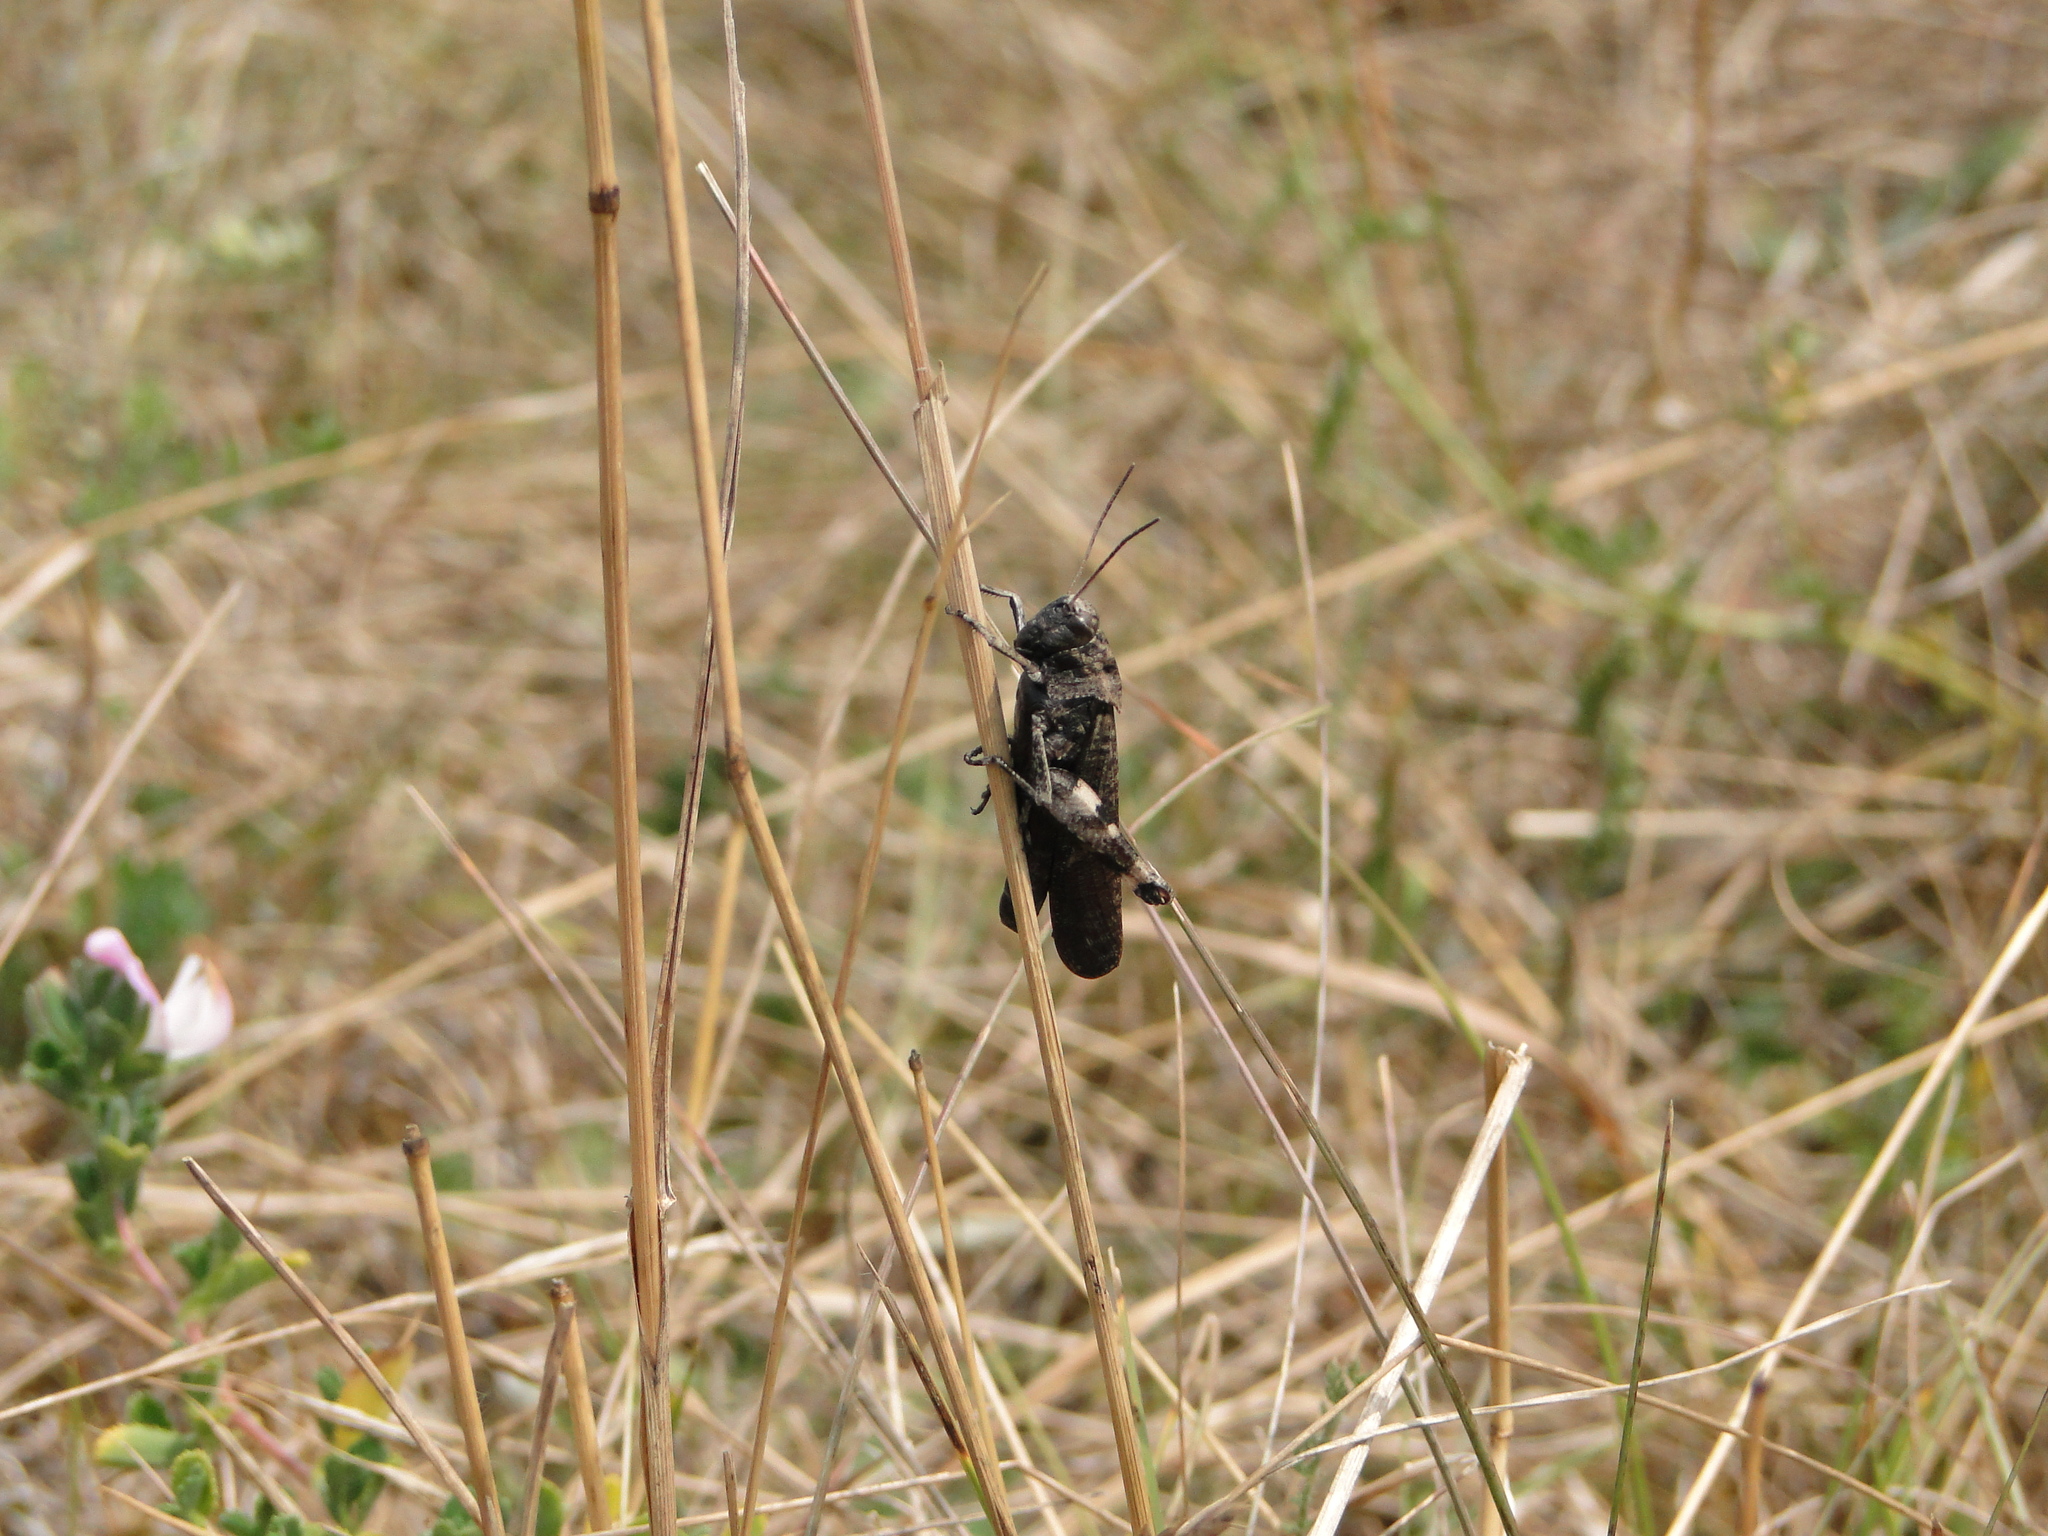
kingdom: Animalia
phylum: Arthropoda
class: Insecta
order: Orthoptera
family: Acrididae
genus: Psophus
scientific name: Psophus stridulus
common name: Rattle grasshopper
